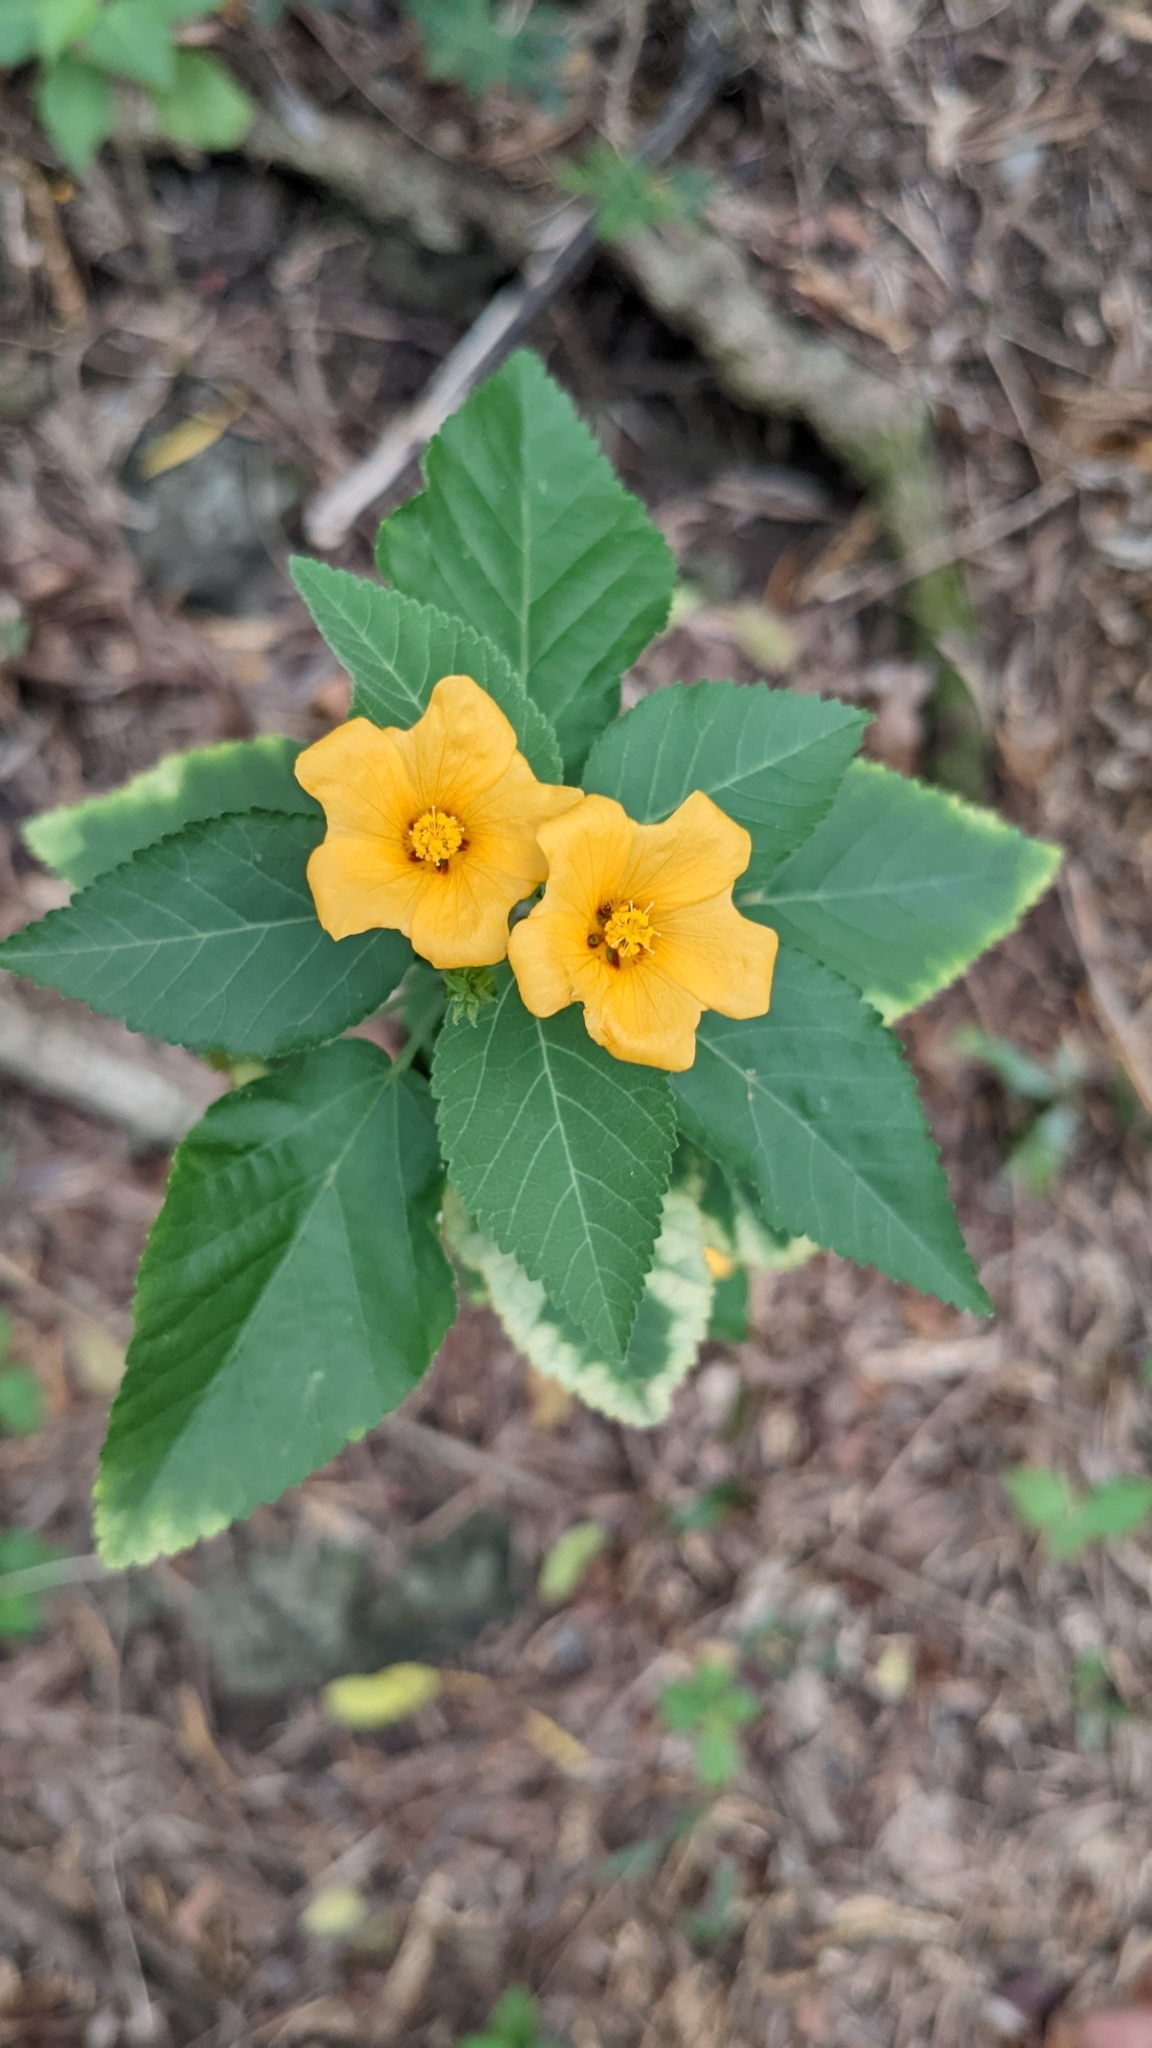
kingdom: Plantae
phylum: Tracheophyta
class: Magnoliopsida
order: Malvales
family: Malvaceae
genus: Sida
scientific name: Sida fallax
